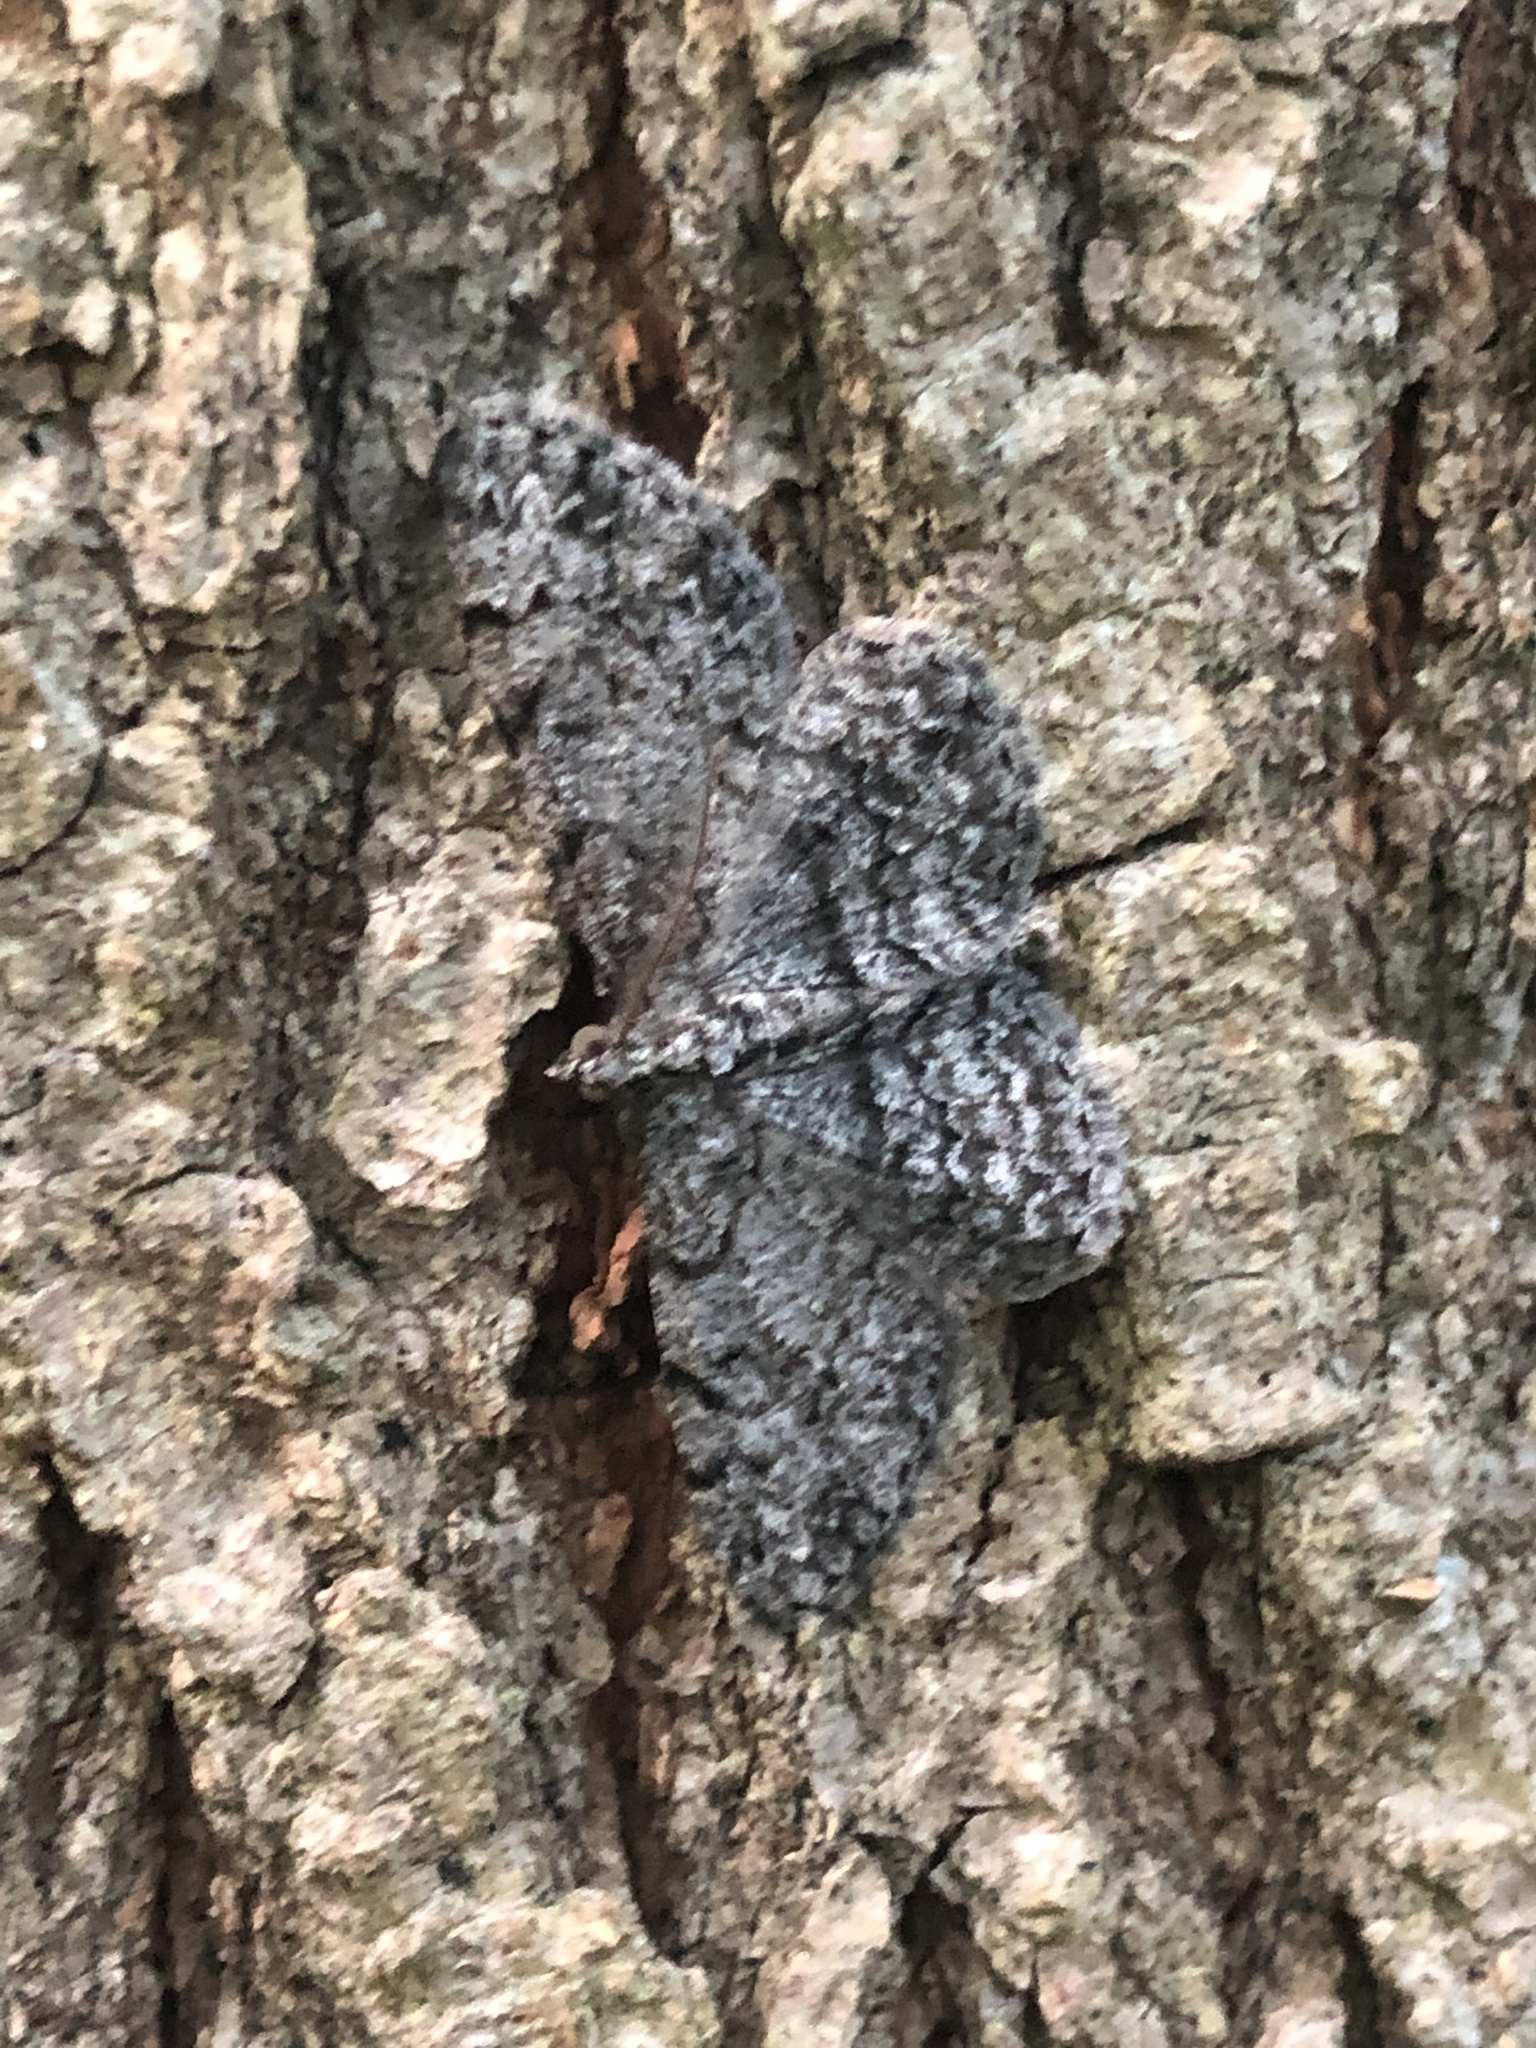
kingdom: Animalia
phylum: Arthropoda
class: Insecta
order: Lepidoptera
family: Geometridae
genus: Protoboarmia
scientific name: Protoboarmia porcelaria
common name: Porcelain gray
